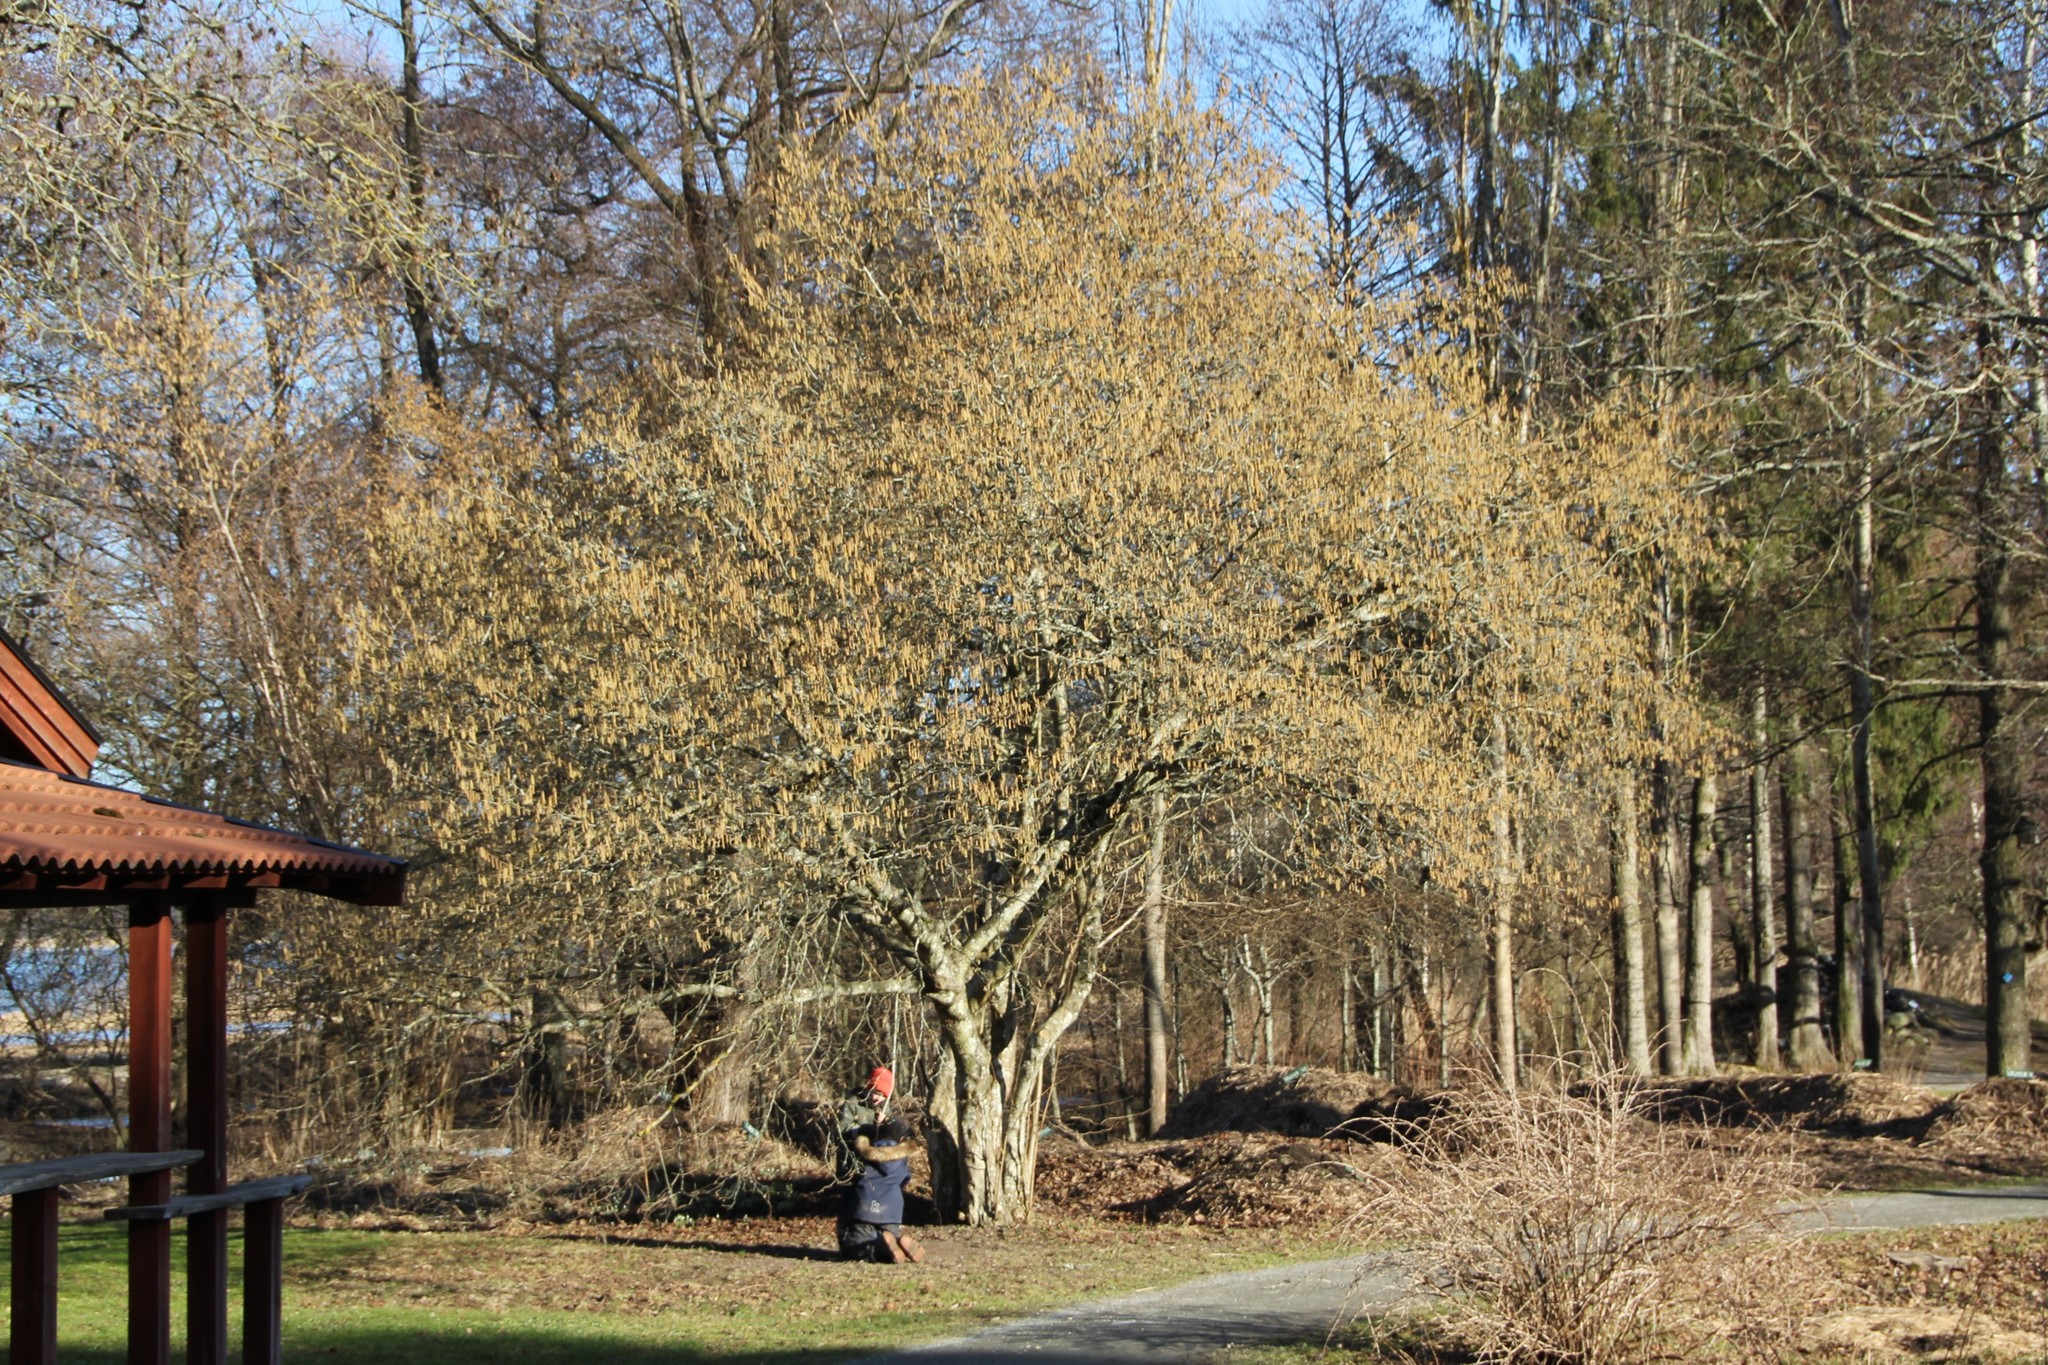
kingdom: Plantae
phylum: Tracheophyta
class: Magnoliopsida
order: Fagales
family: Betulaceae
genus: Corylus
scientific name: Corylus avellana
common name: European hazel
